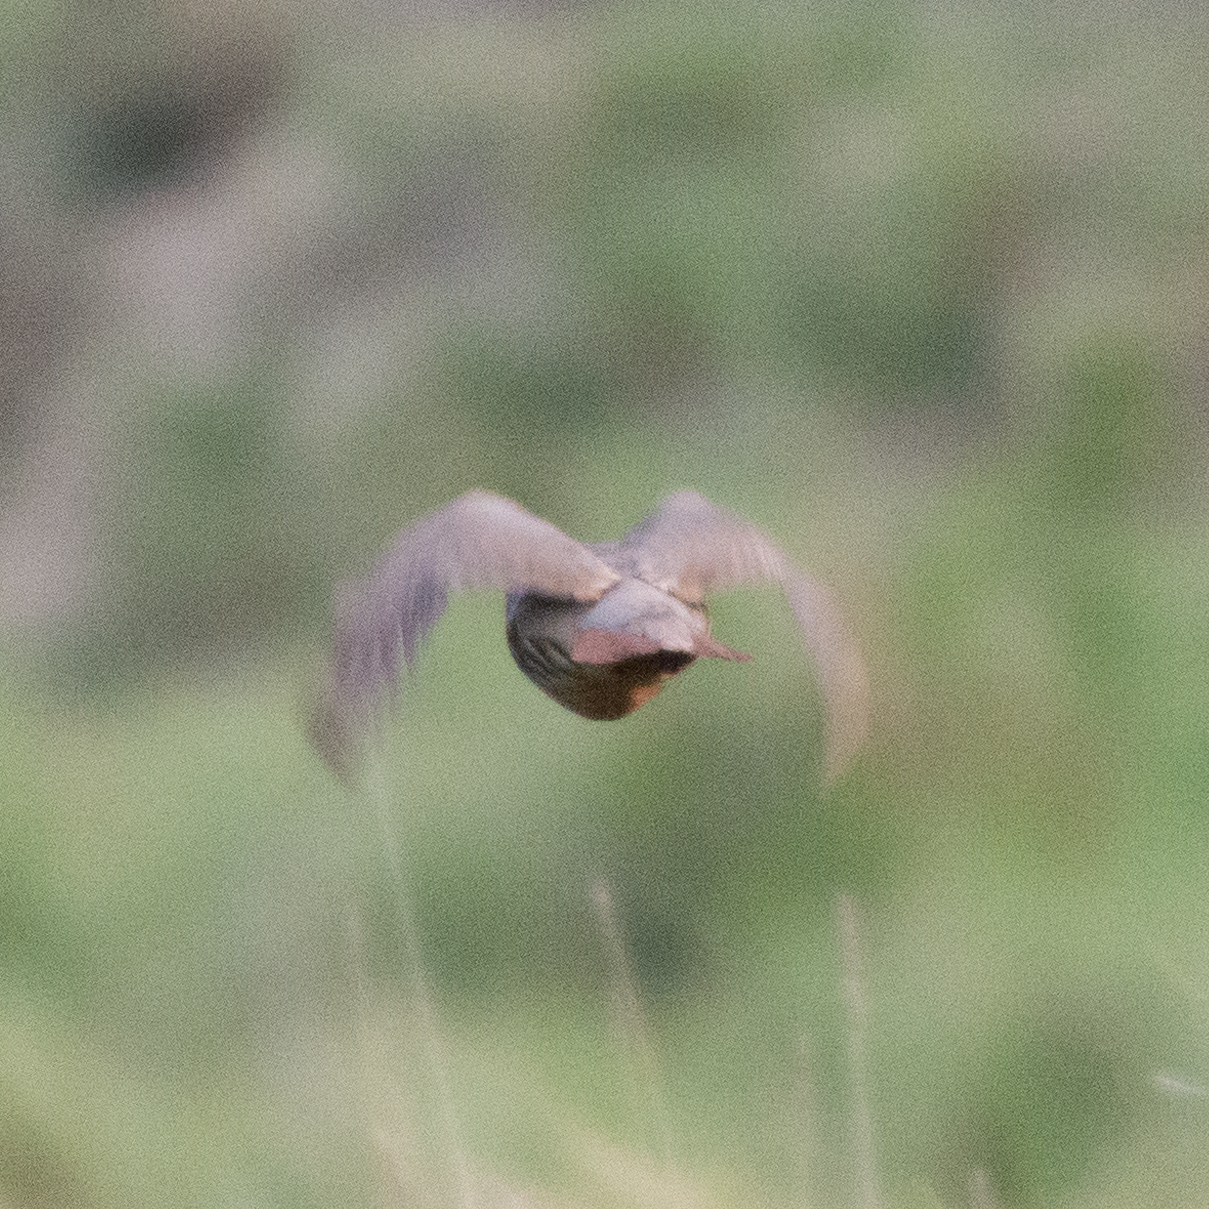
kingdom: Animalia
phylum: Chordata
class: Aves
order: Galliformes
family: Phasianidae
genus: Alectoris
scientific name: Alectoris rufa
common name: Red-legged partridge
